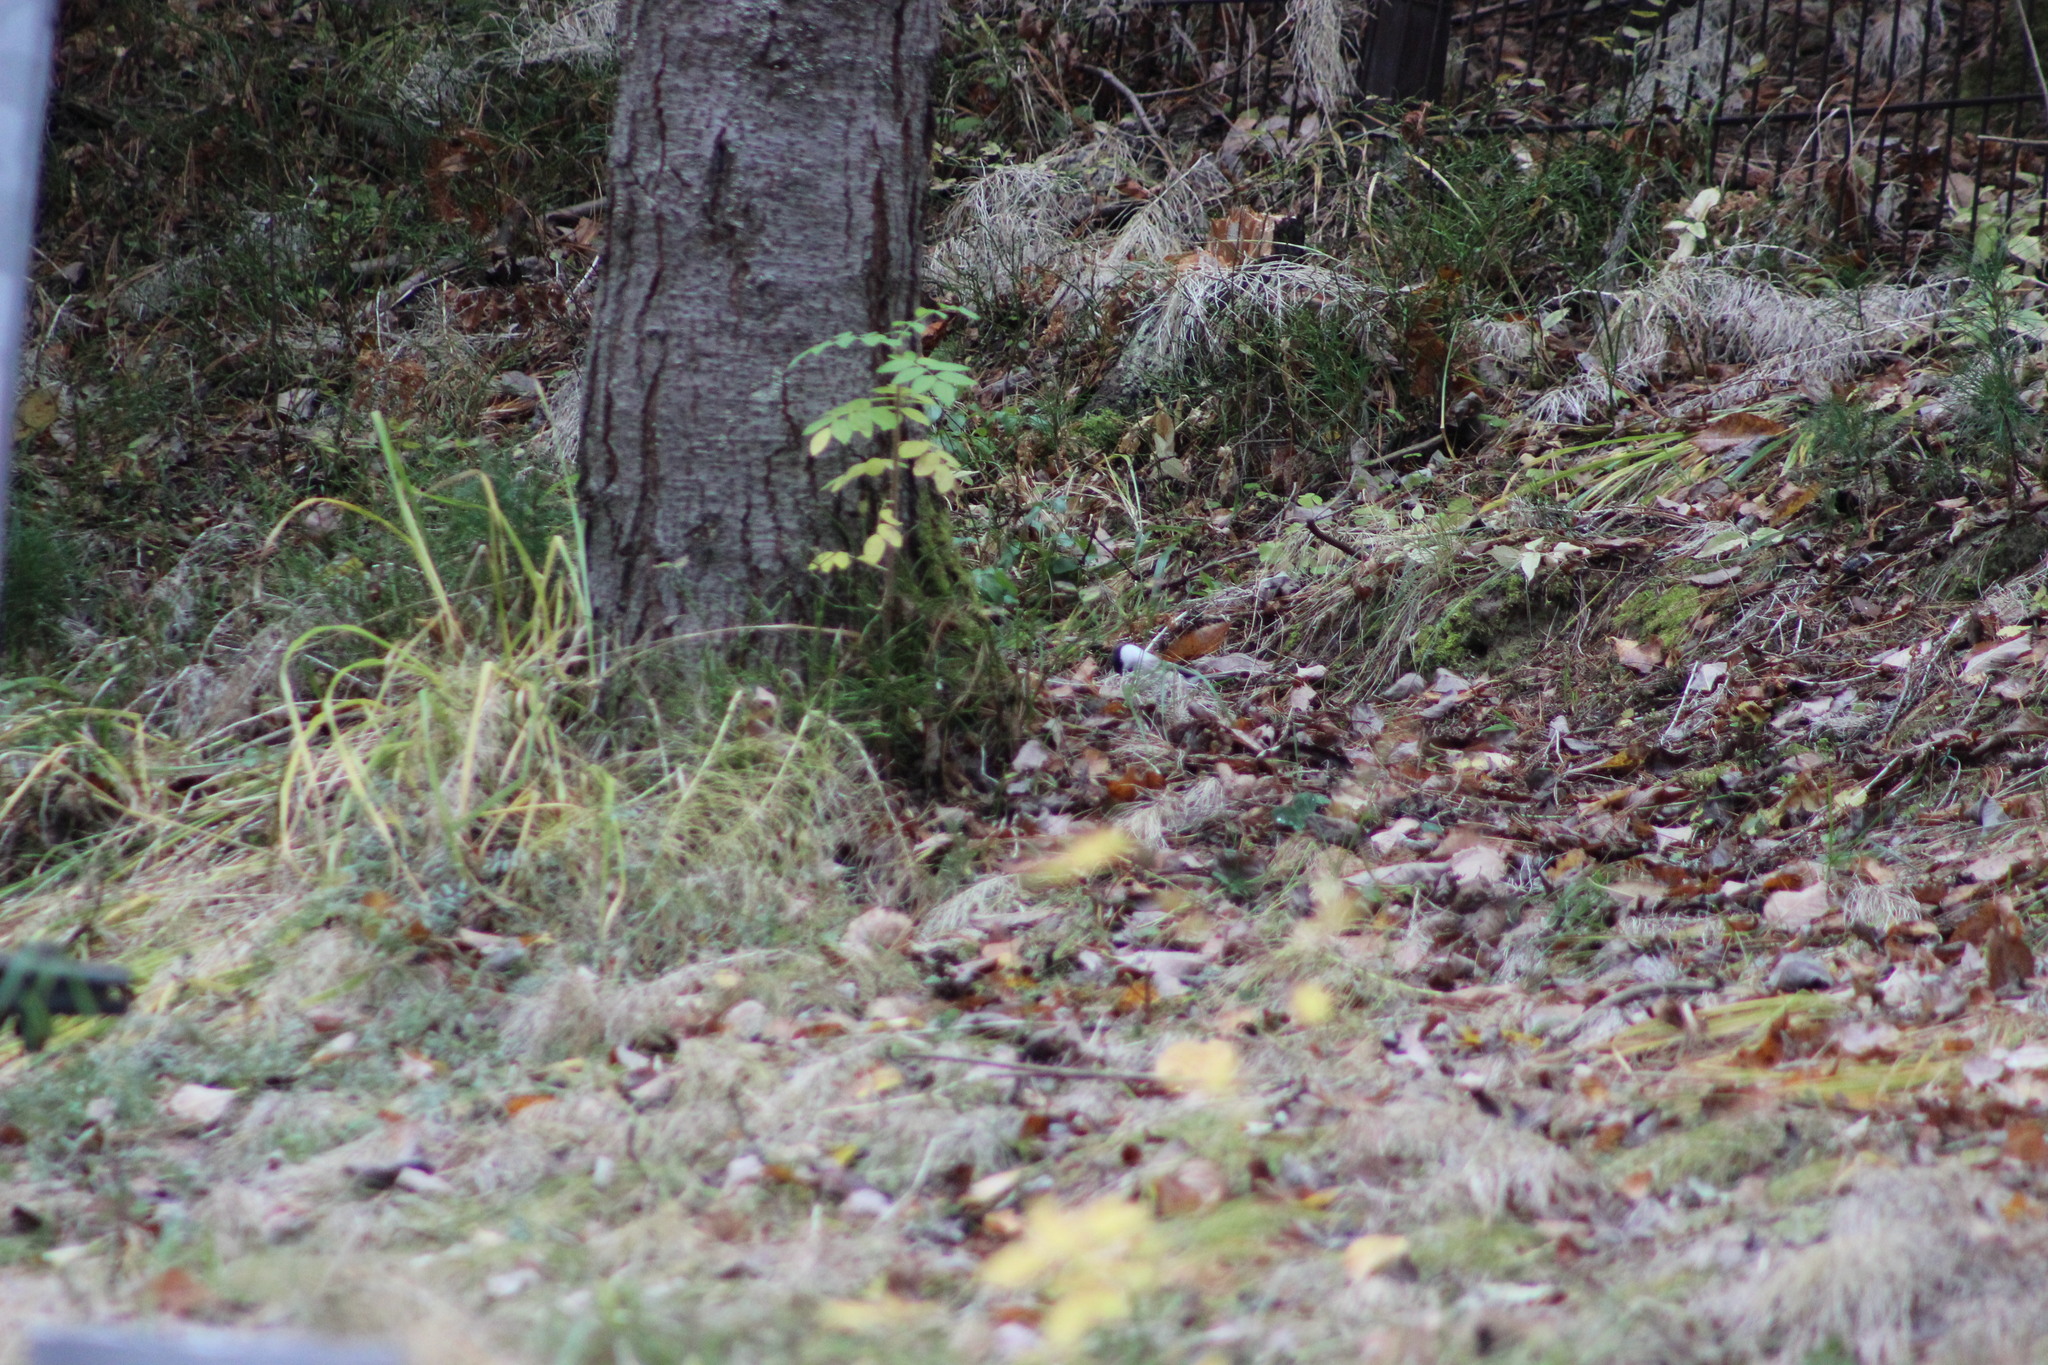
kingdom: Animalia
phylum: Chordata
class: Aves
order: Passeriformes
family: Paridae
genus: Poecile
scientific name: Poecile montanus
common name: Willow tit
